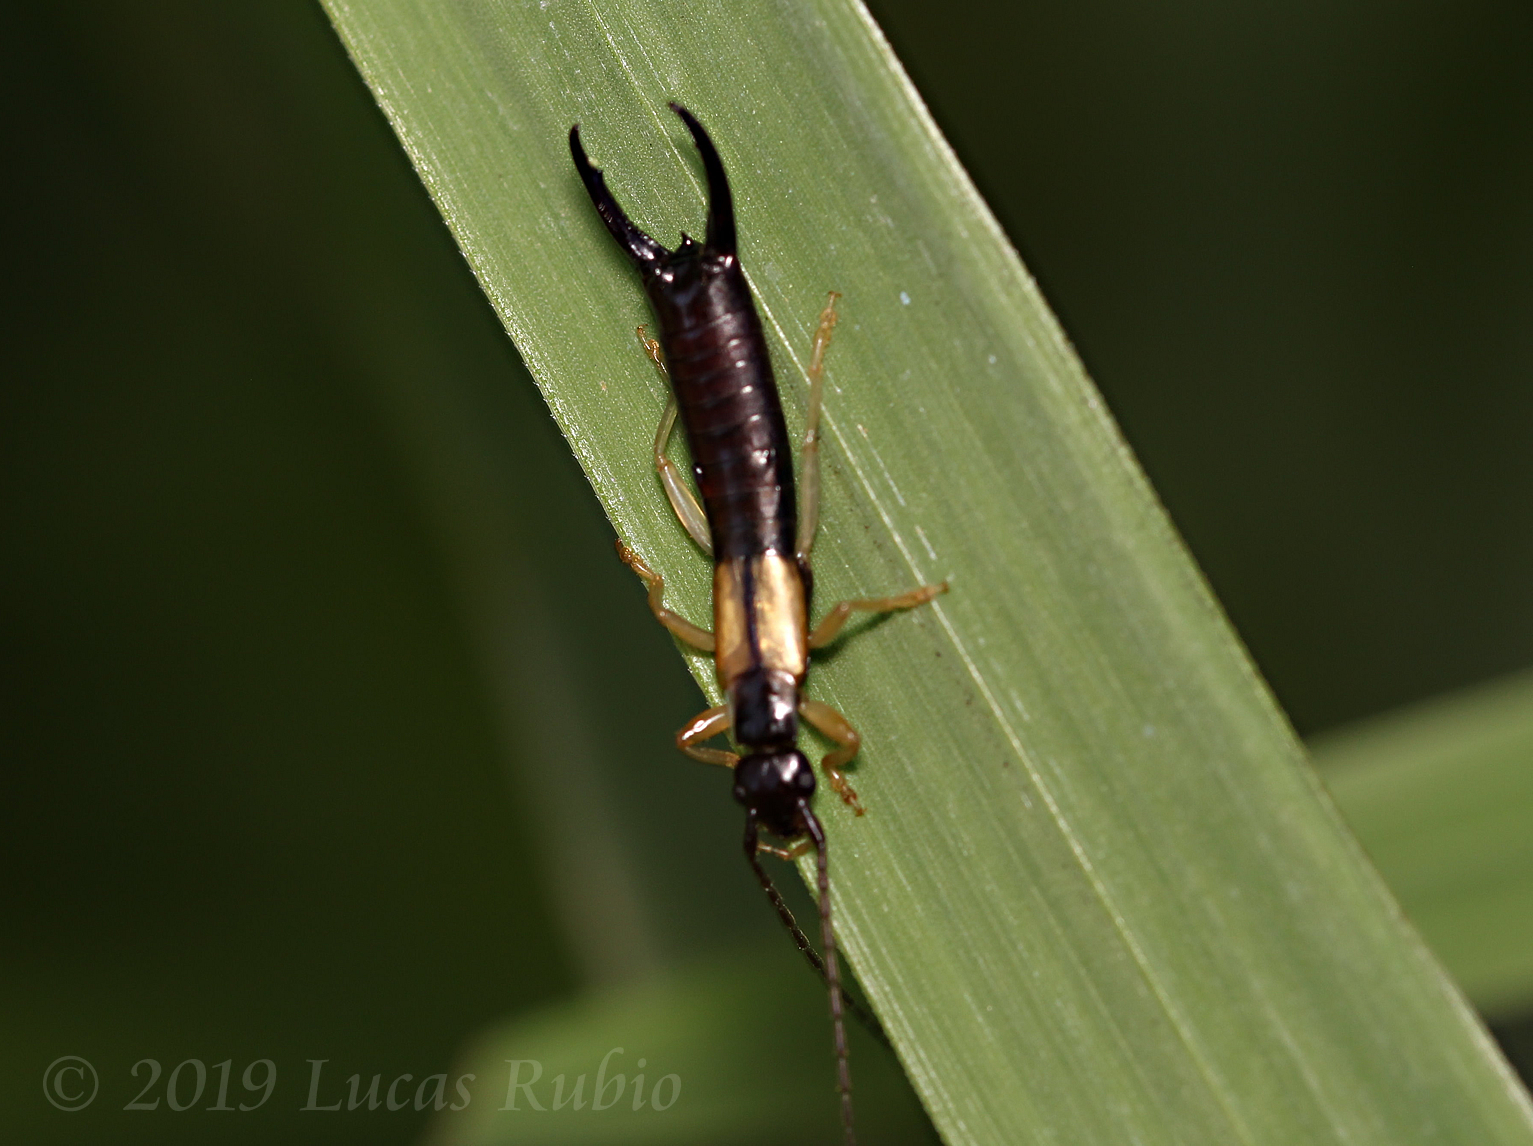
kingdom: Animalia
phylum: Arthropoda
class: Insecta
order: Dermaptera
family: Forficulidae
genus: Doru
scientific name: Doru luteipes
